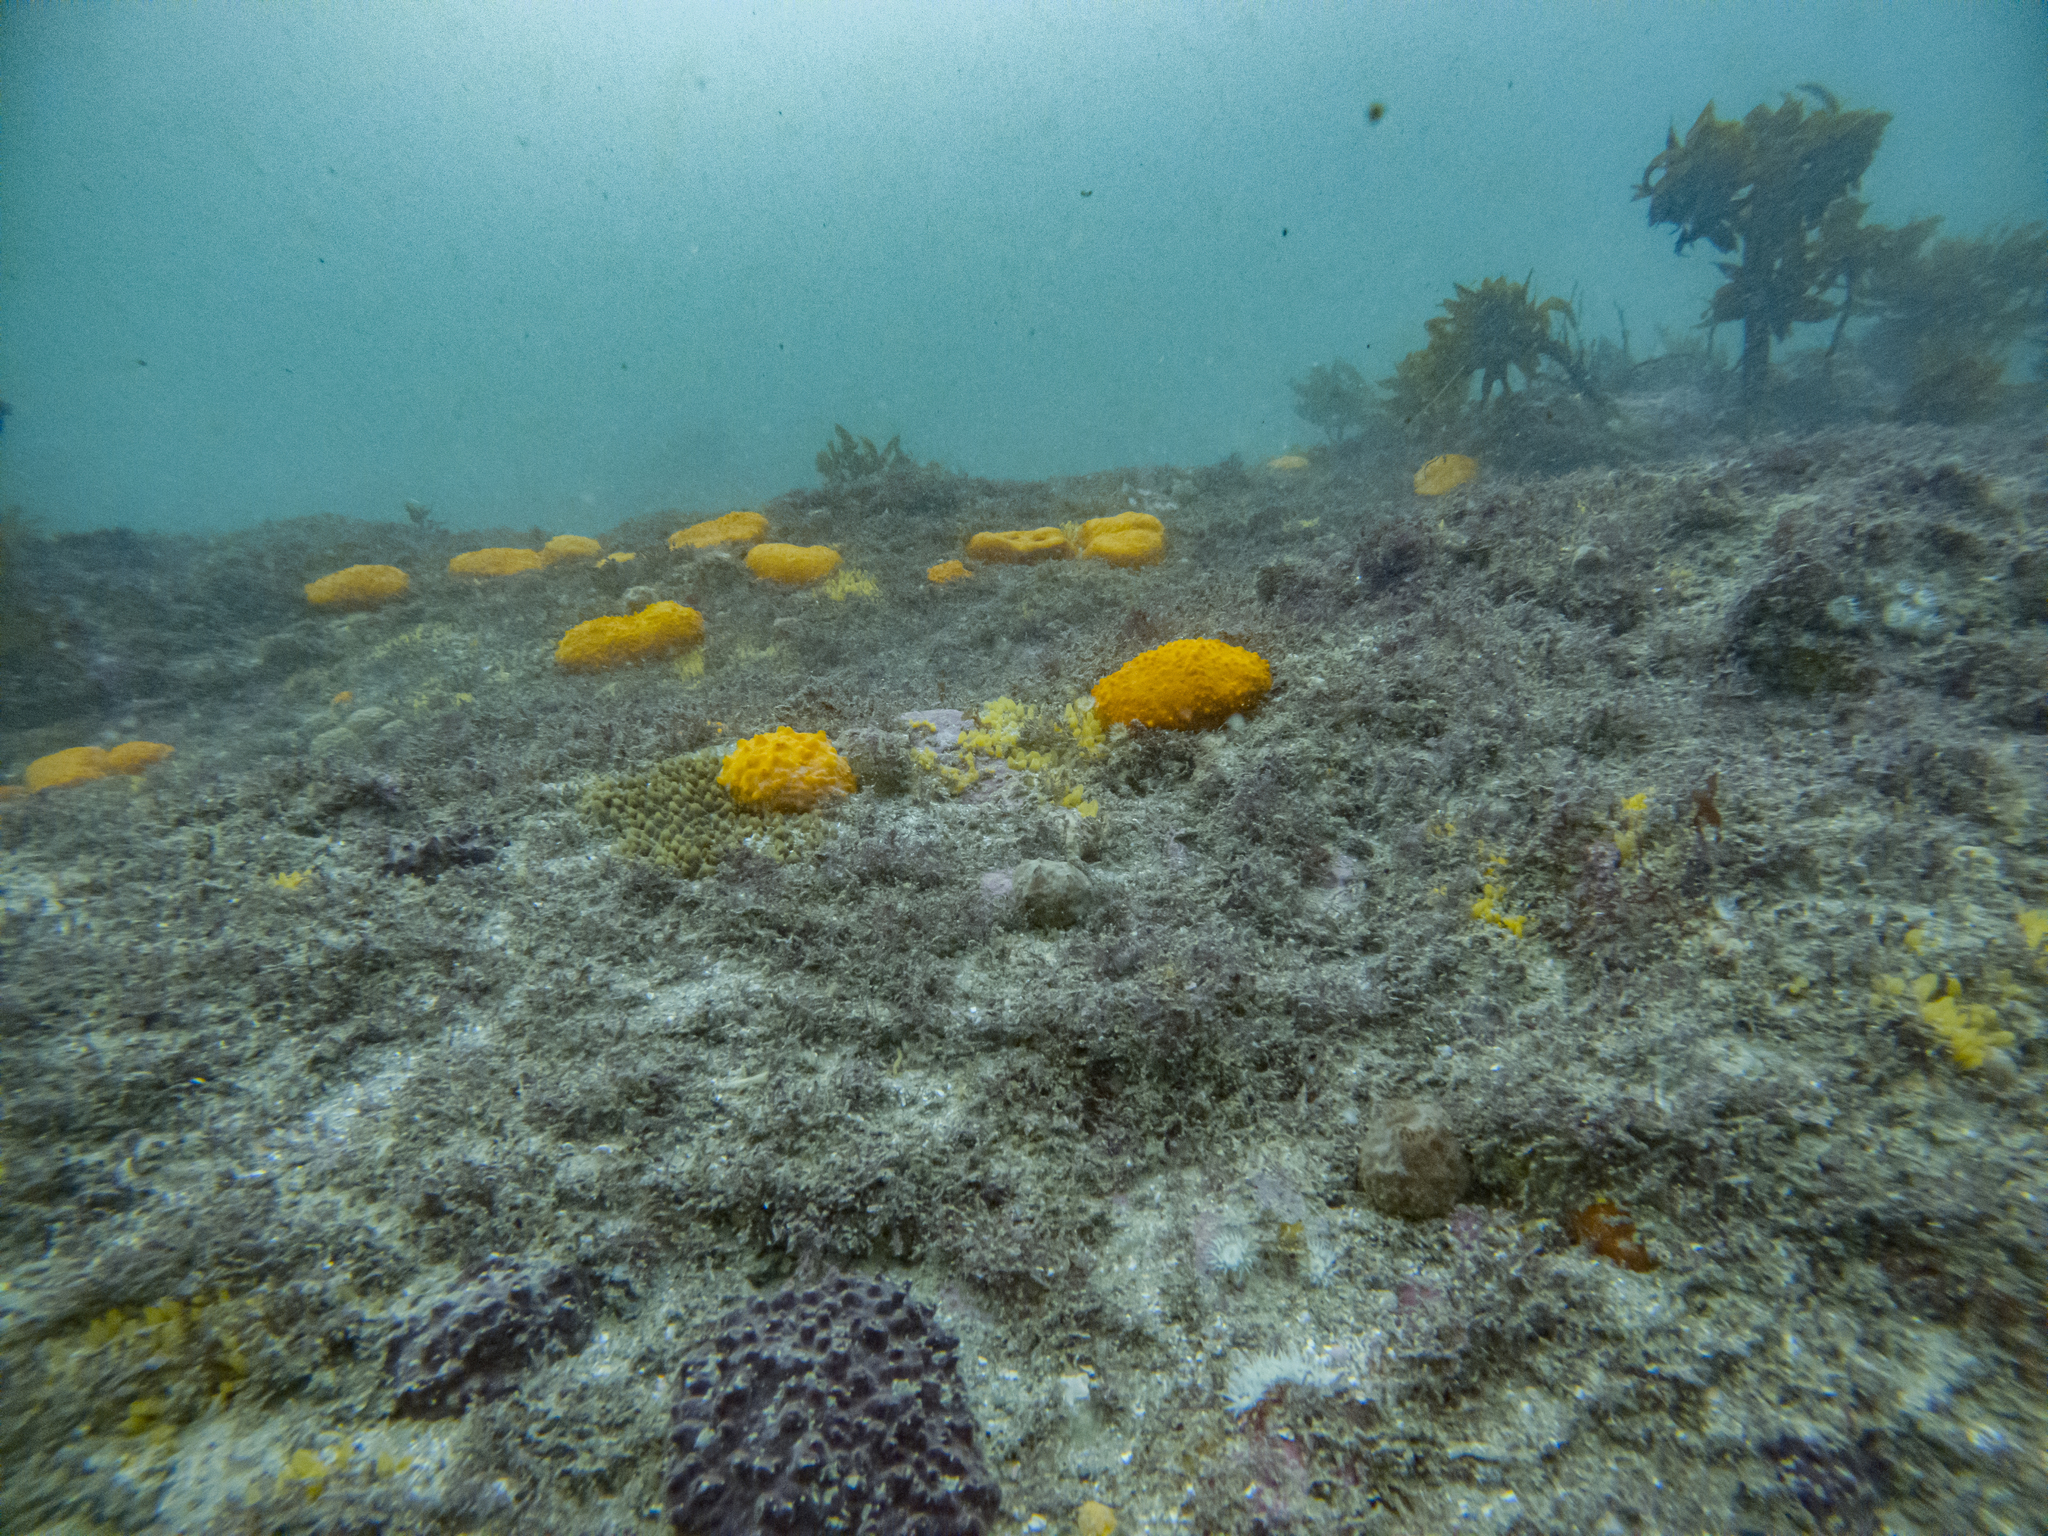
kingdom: Animalia
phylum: Porifera
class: Demospongiae
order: Polymastiida
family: Polymastiidae
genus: Polymastia
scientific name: Polymastia aurantia
